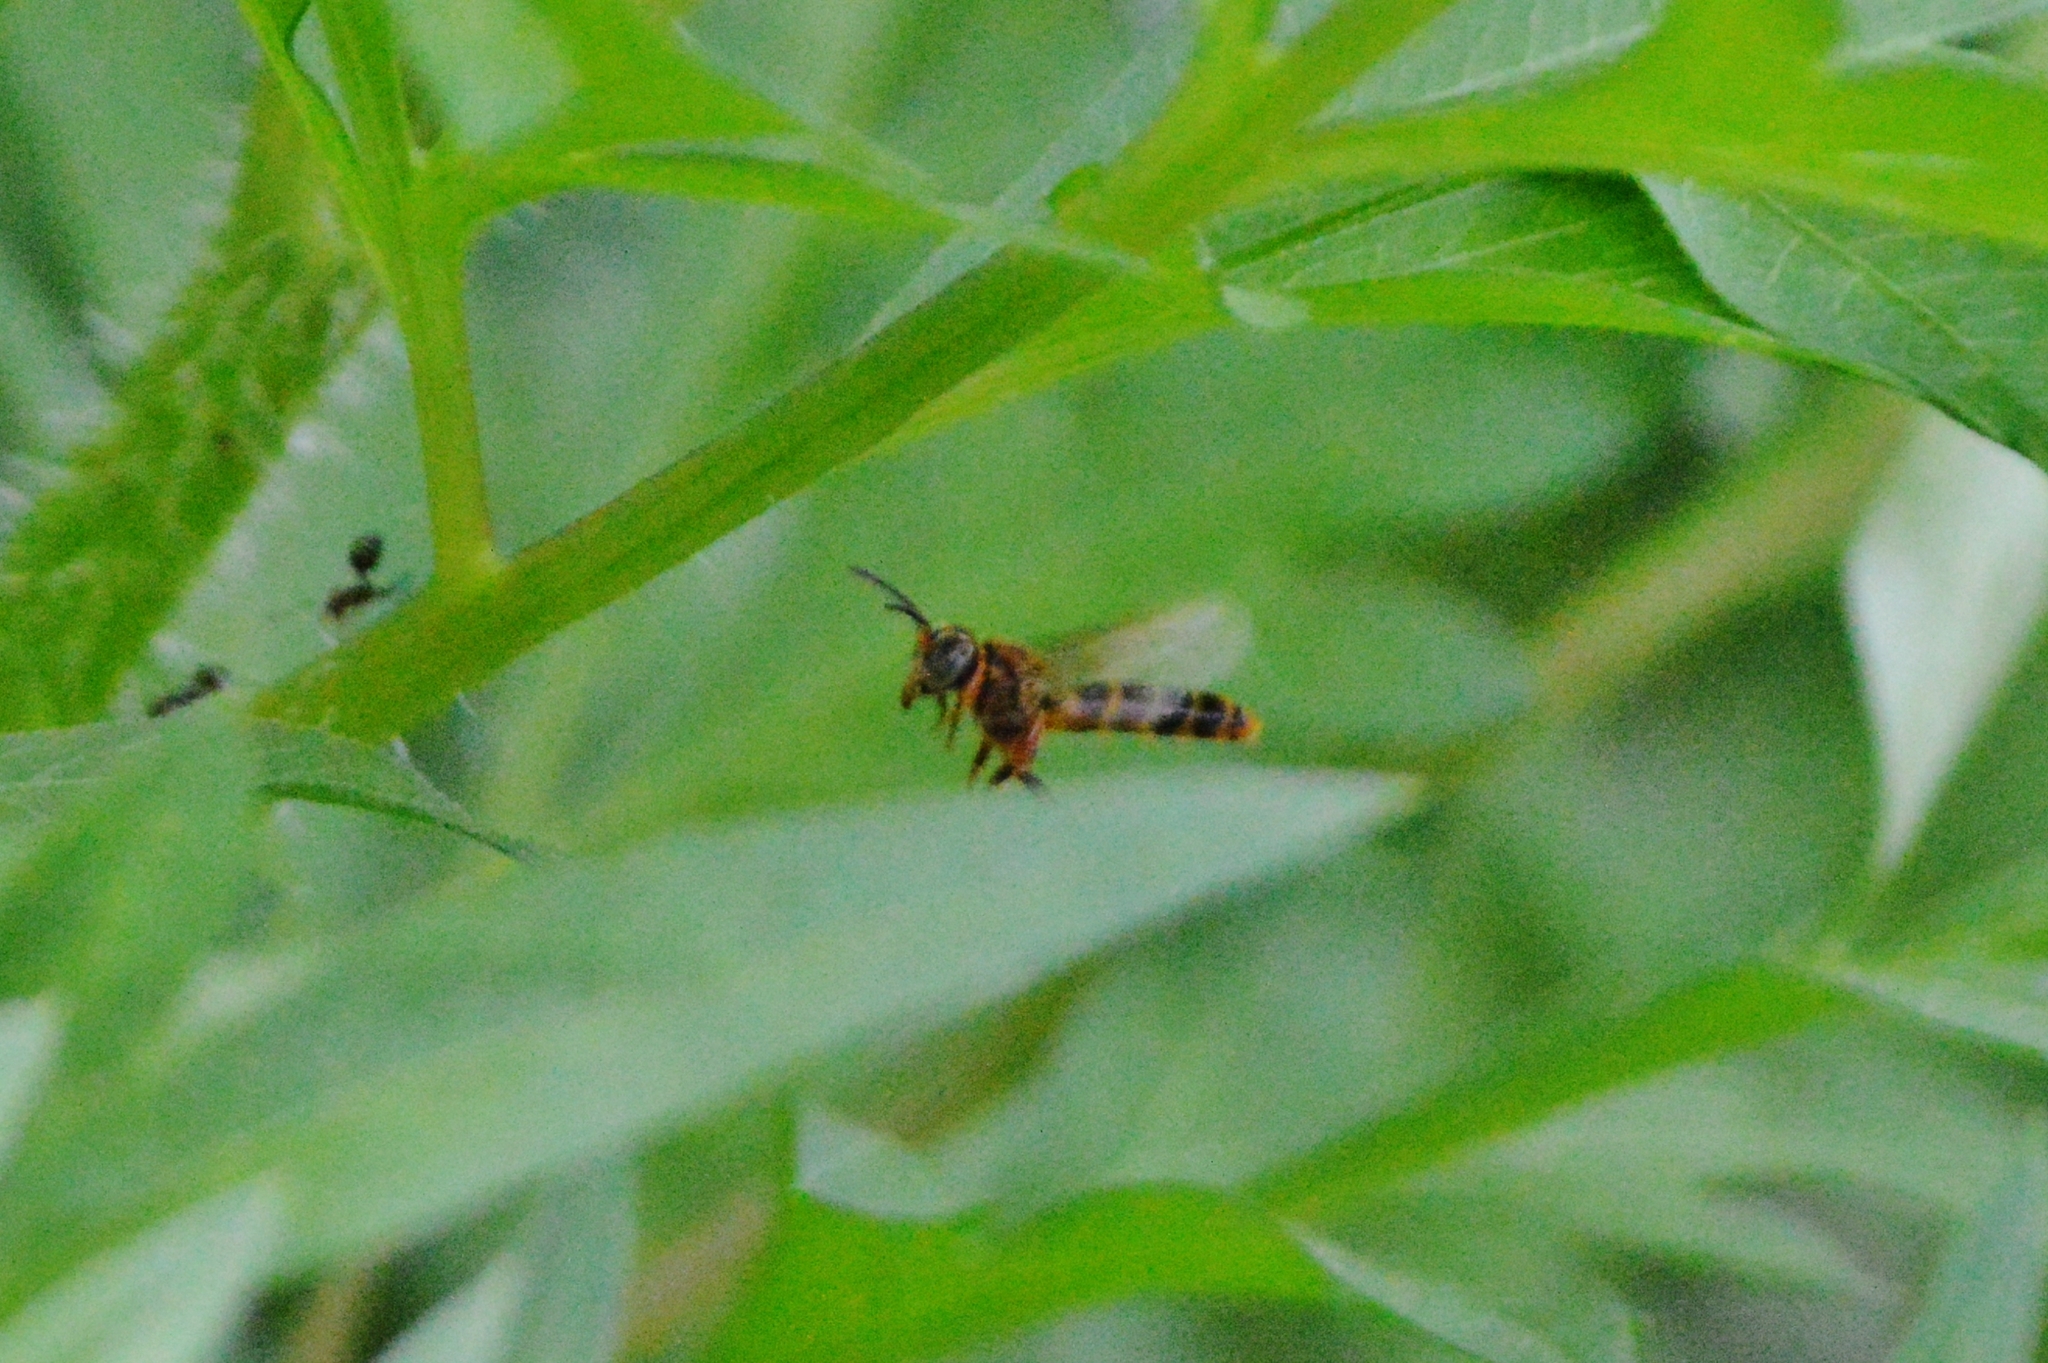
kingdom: Animalia
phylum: Arthropoda
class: Insecta
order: Hymenoptera
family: Apidae
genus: Tetragona
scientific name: Tetragona clavipes
